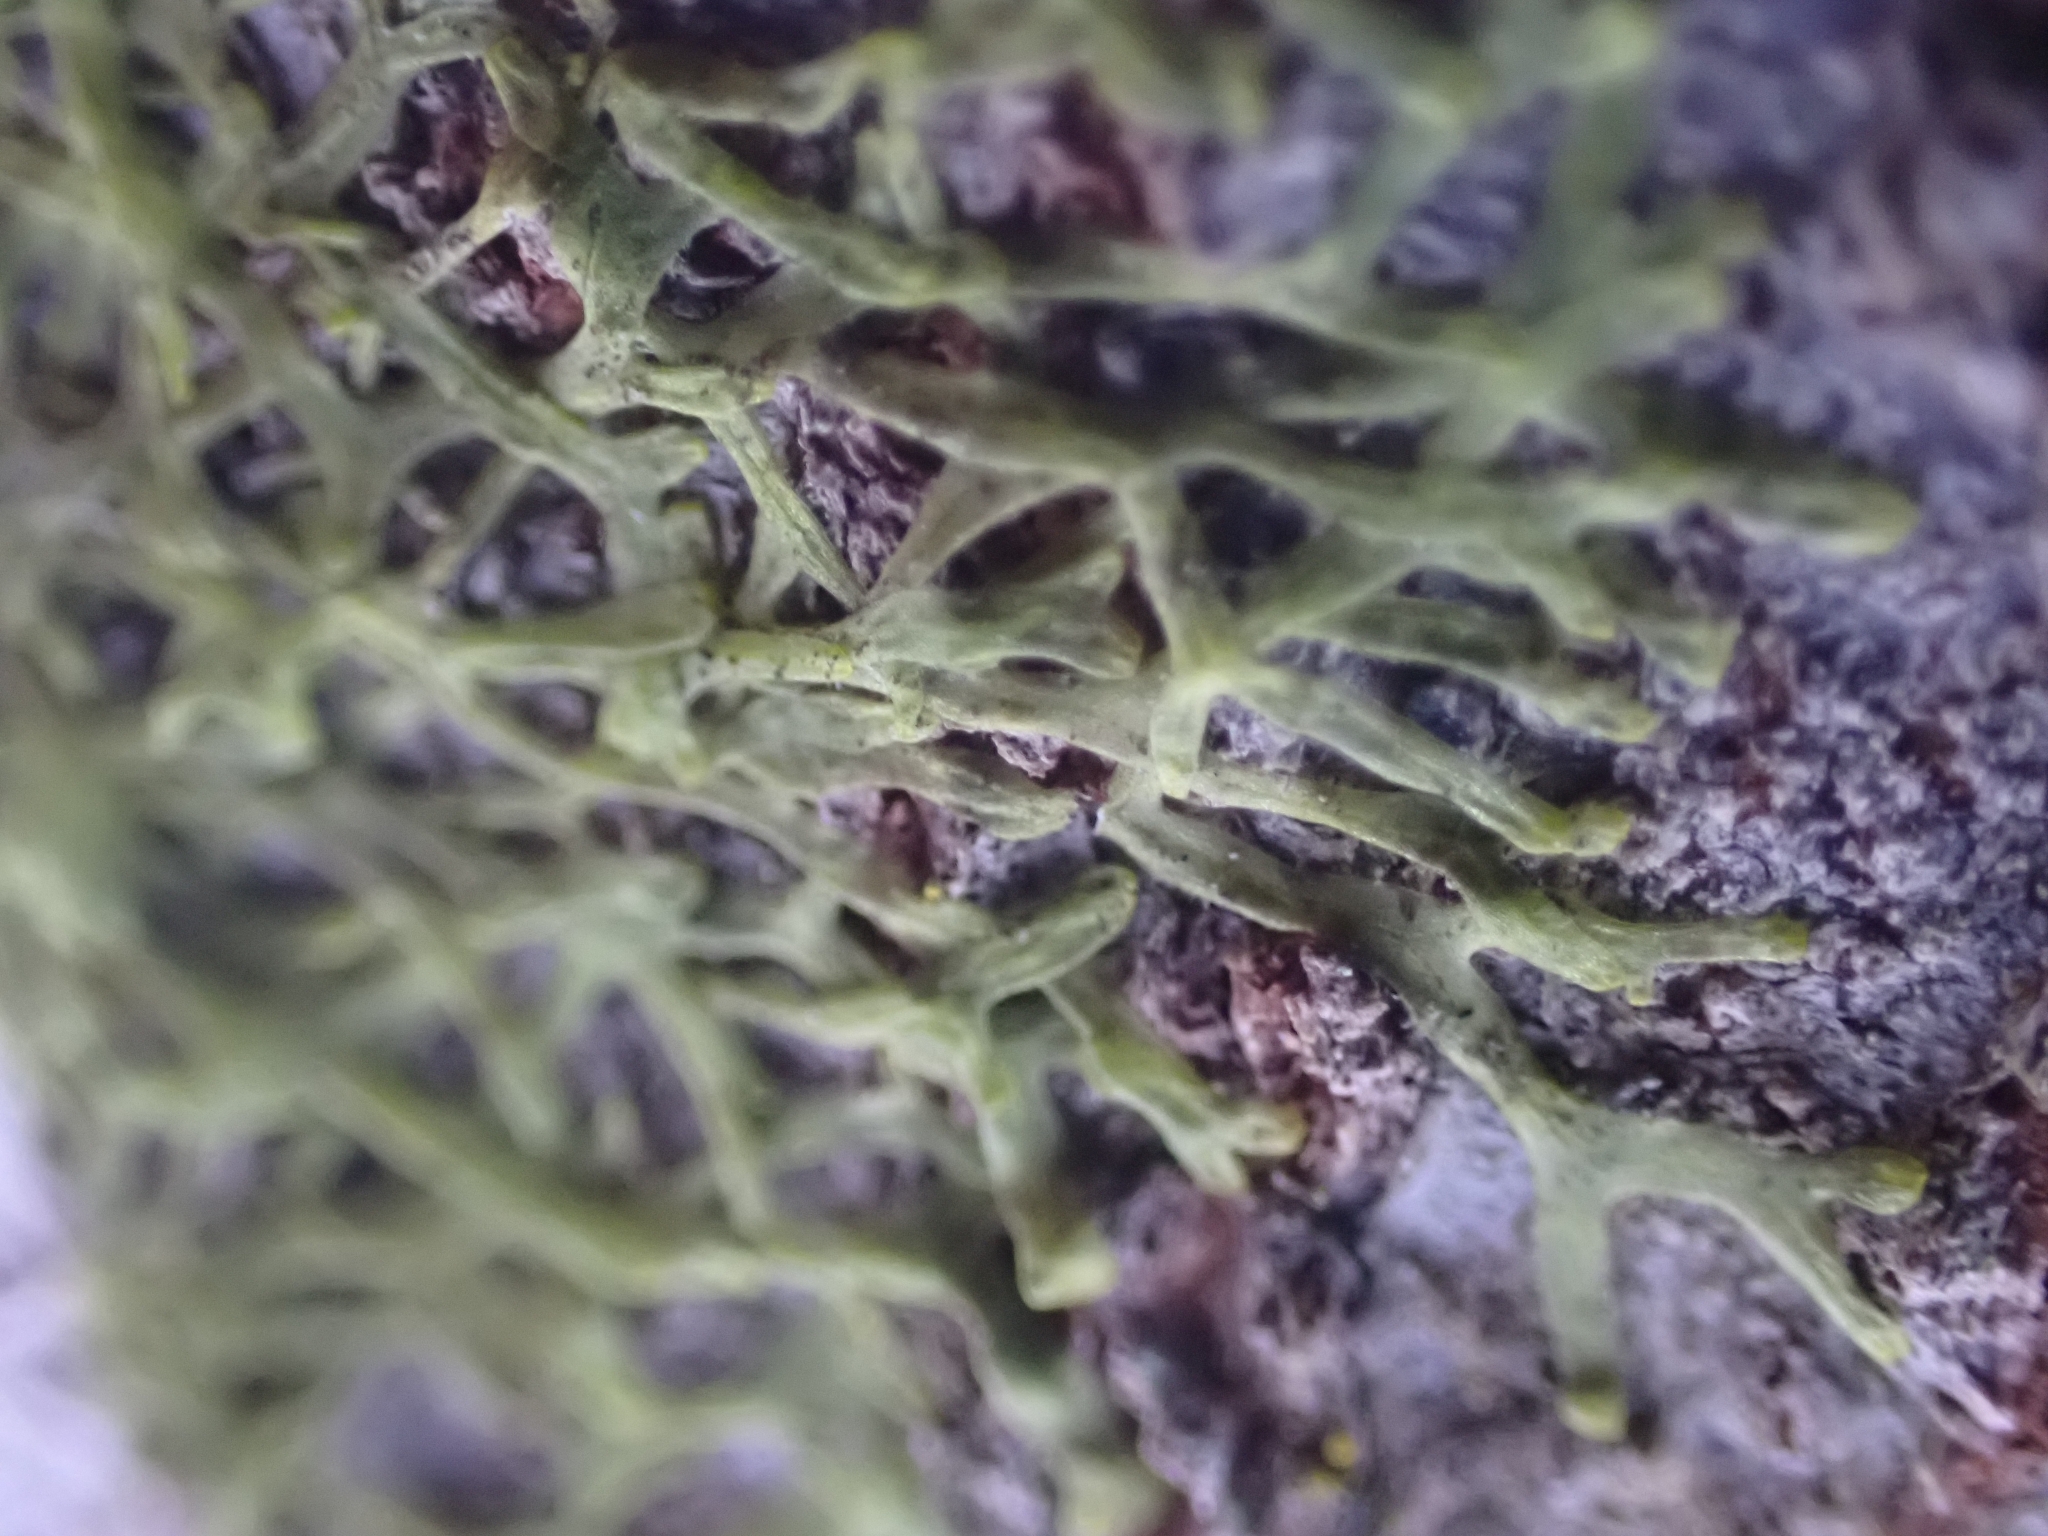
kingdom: Plantae
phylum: Marchantiophyta
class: Jungermanniopsida
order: Metzgeriales
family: Metzgeriaceae
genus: Metzgeria
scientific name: Metzgeria furcata
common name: Forked veilwort
